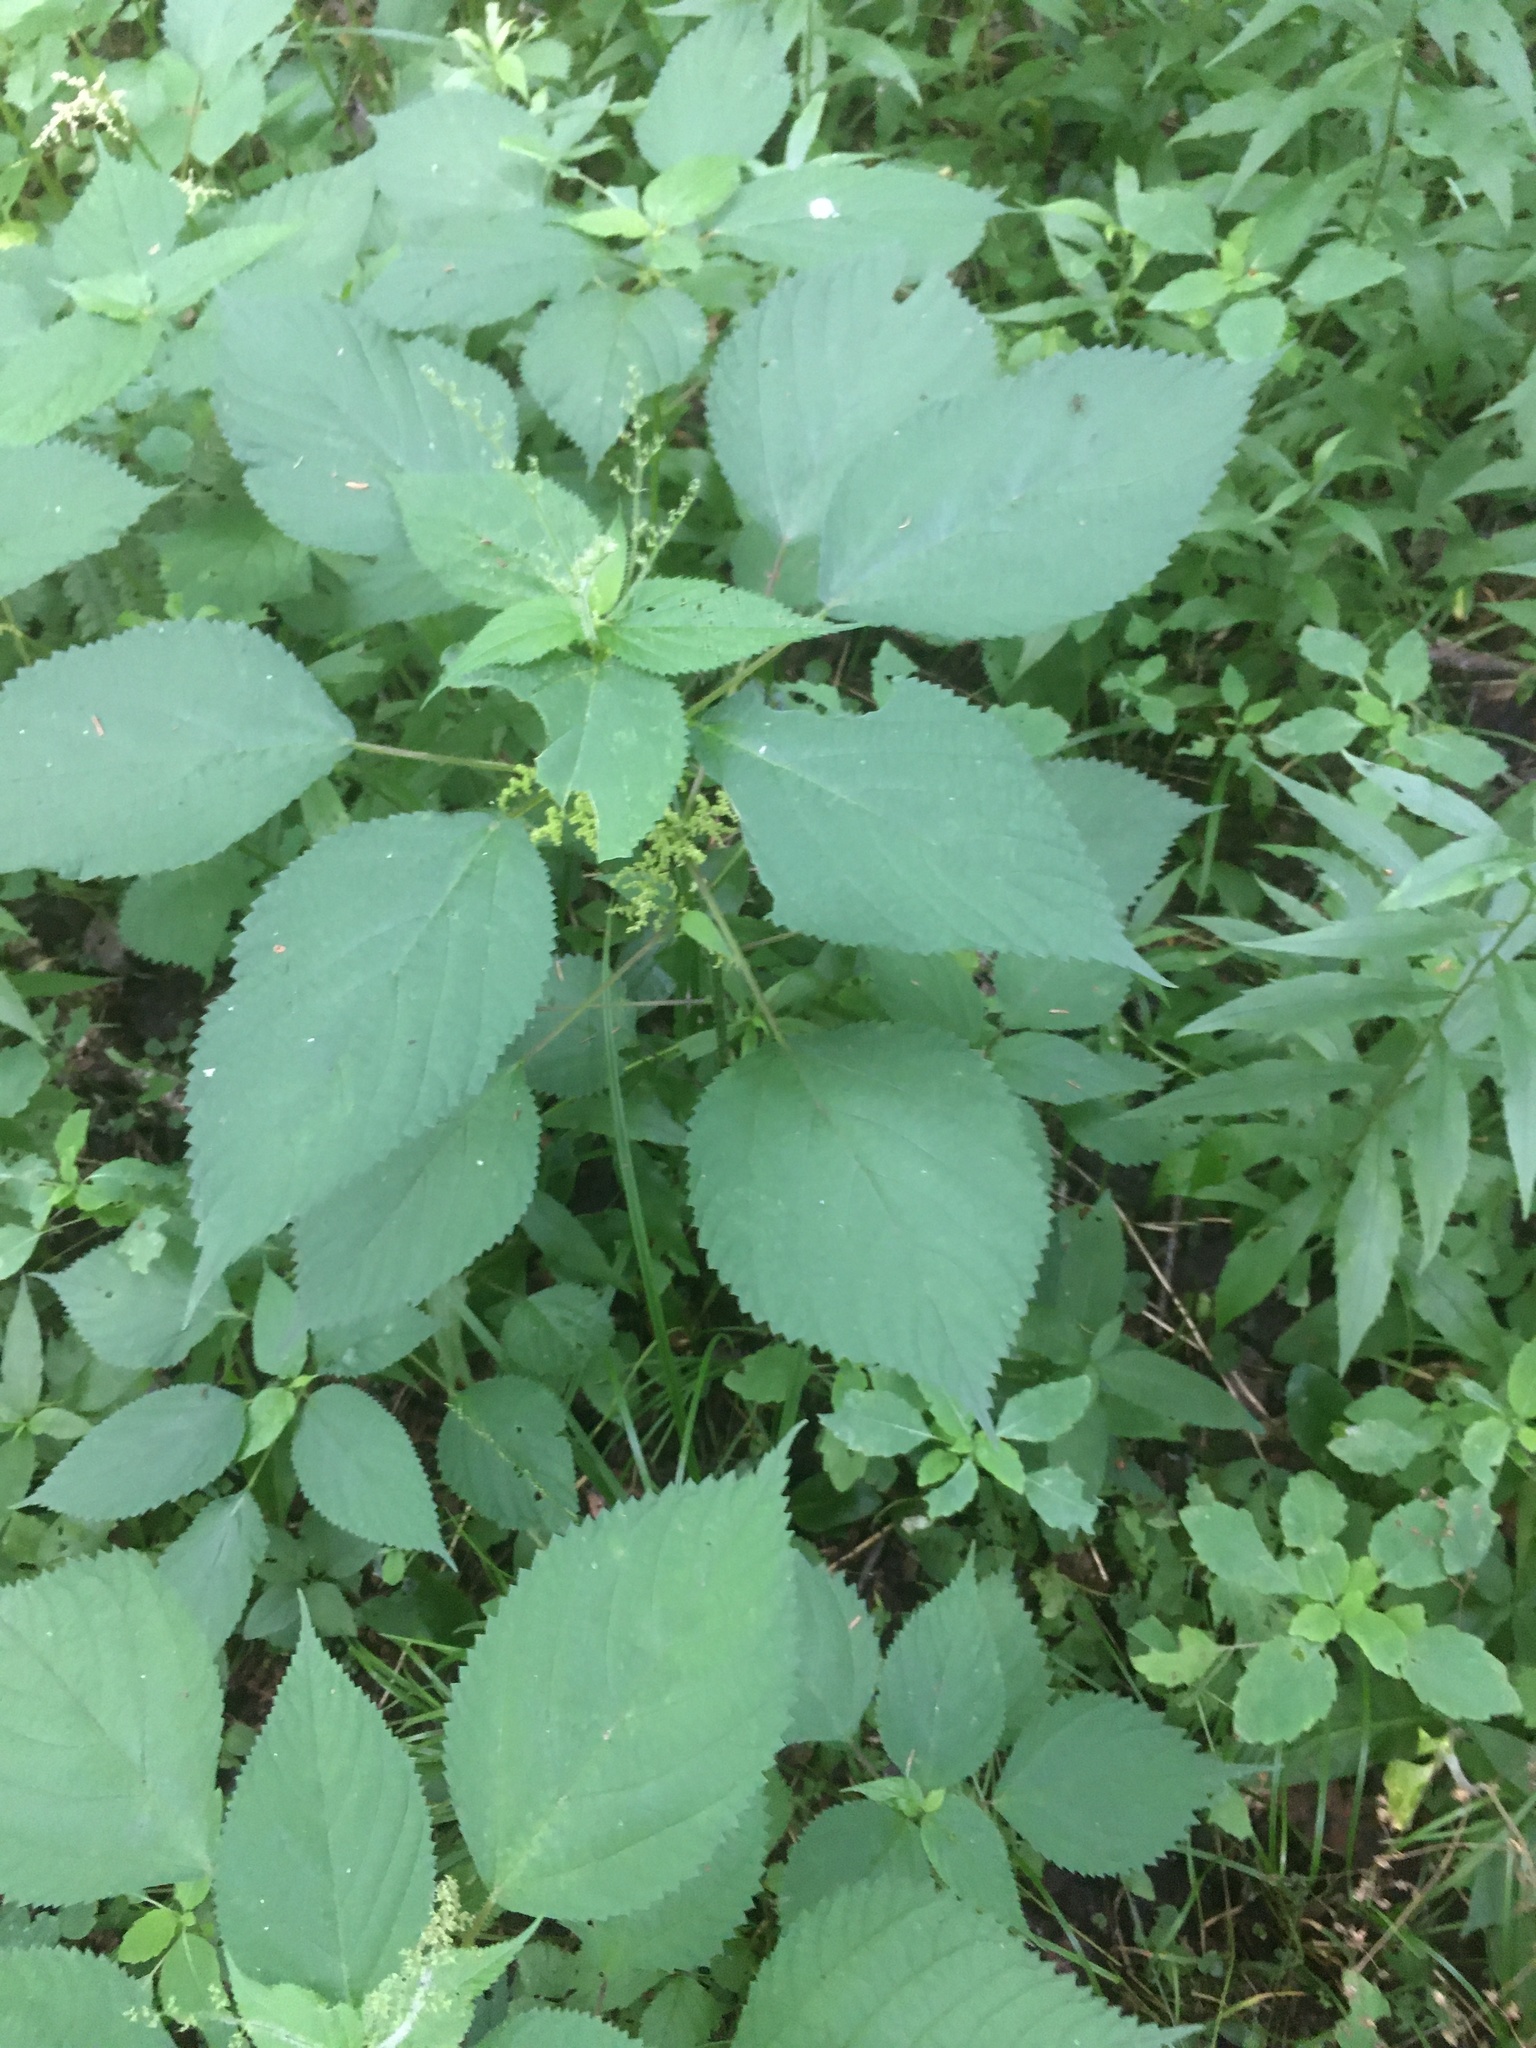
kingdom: Plantae
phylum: Tracheophyta
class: Magnoliopsida
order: Rosales
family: Urticaceae
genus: Laportea
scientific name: Laportea canadensis
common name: Canada nettle
